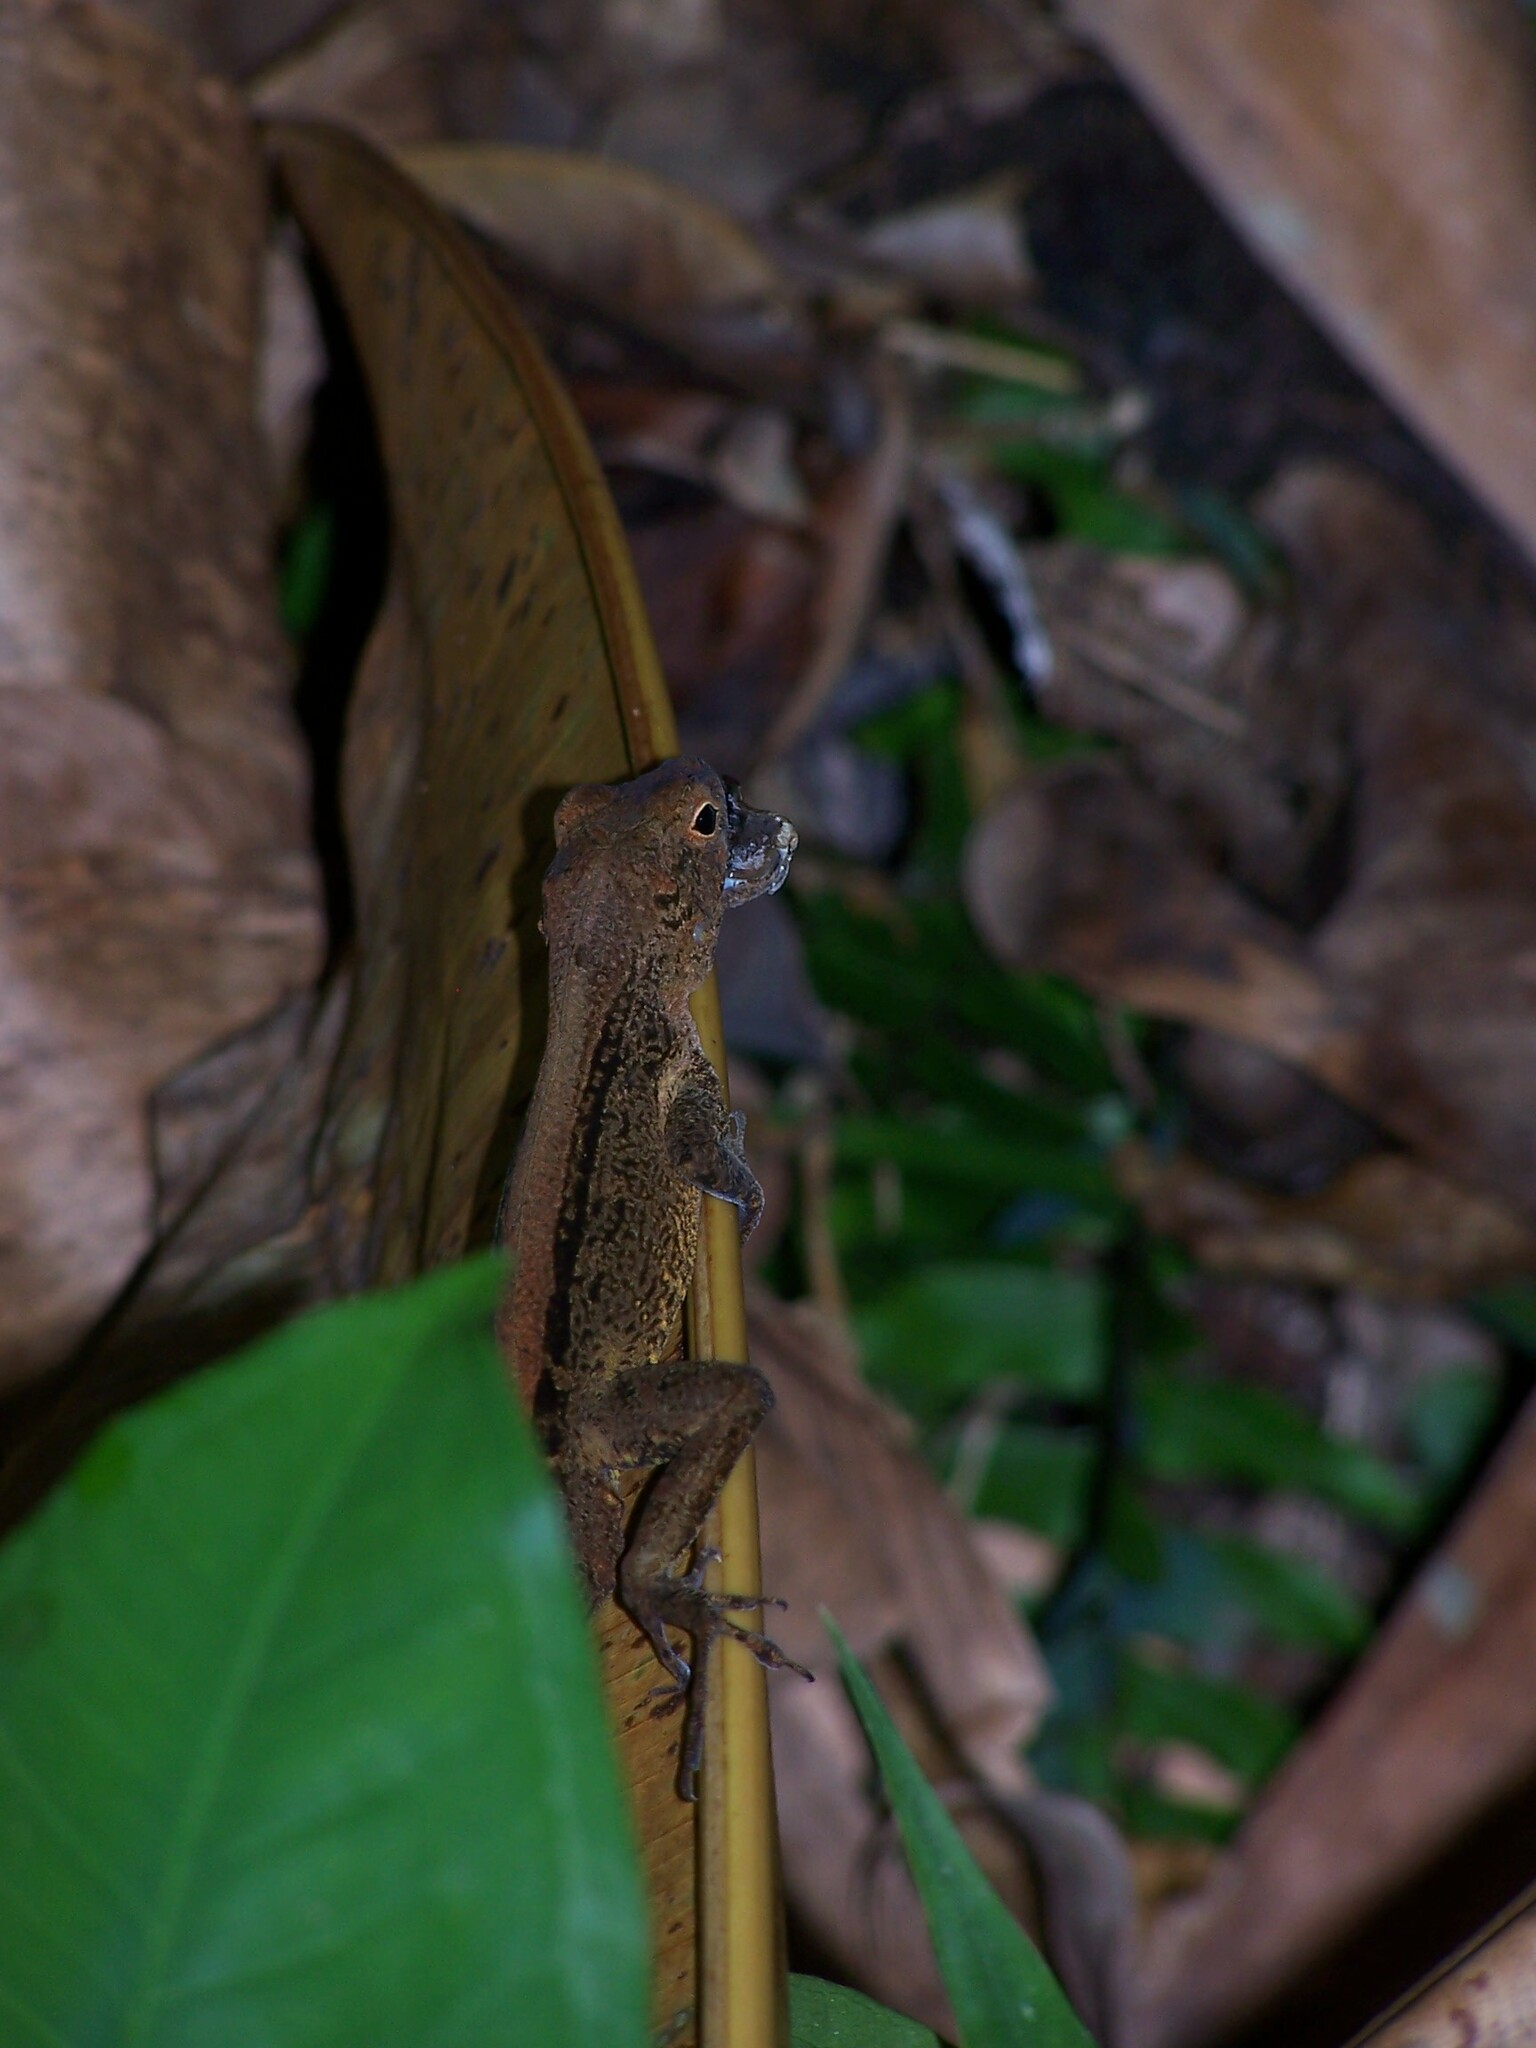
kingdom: Animalia
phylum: Chordata
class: Squamata
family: Dactyloidae
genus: Anolis
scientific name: Anolis cristatellus
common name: Crested anole
